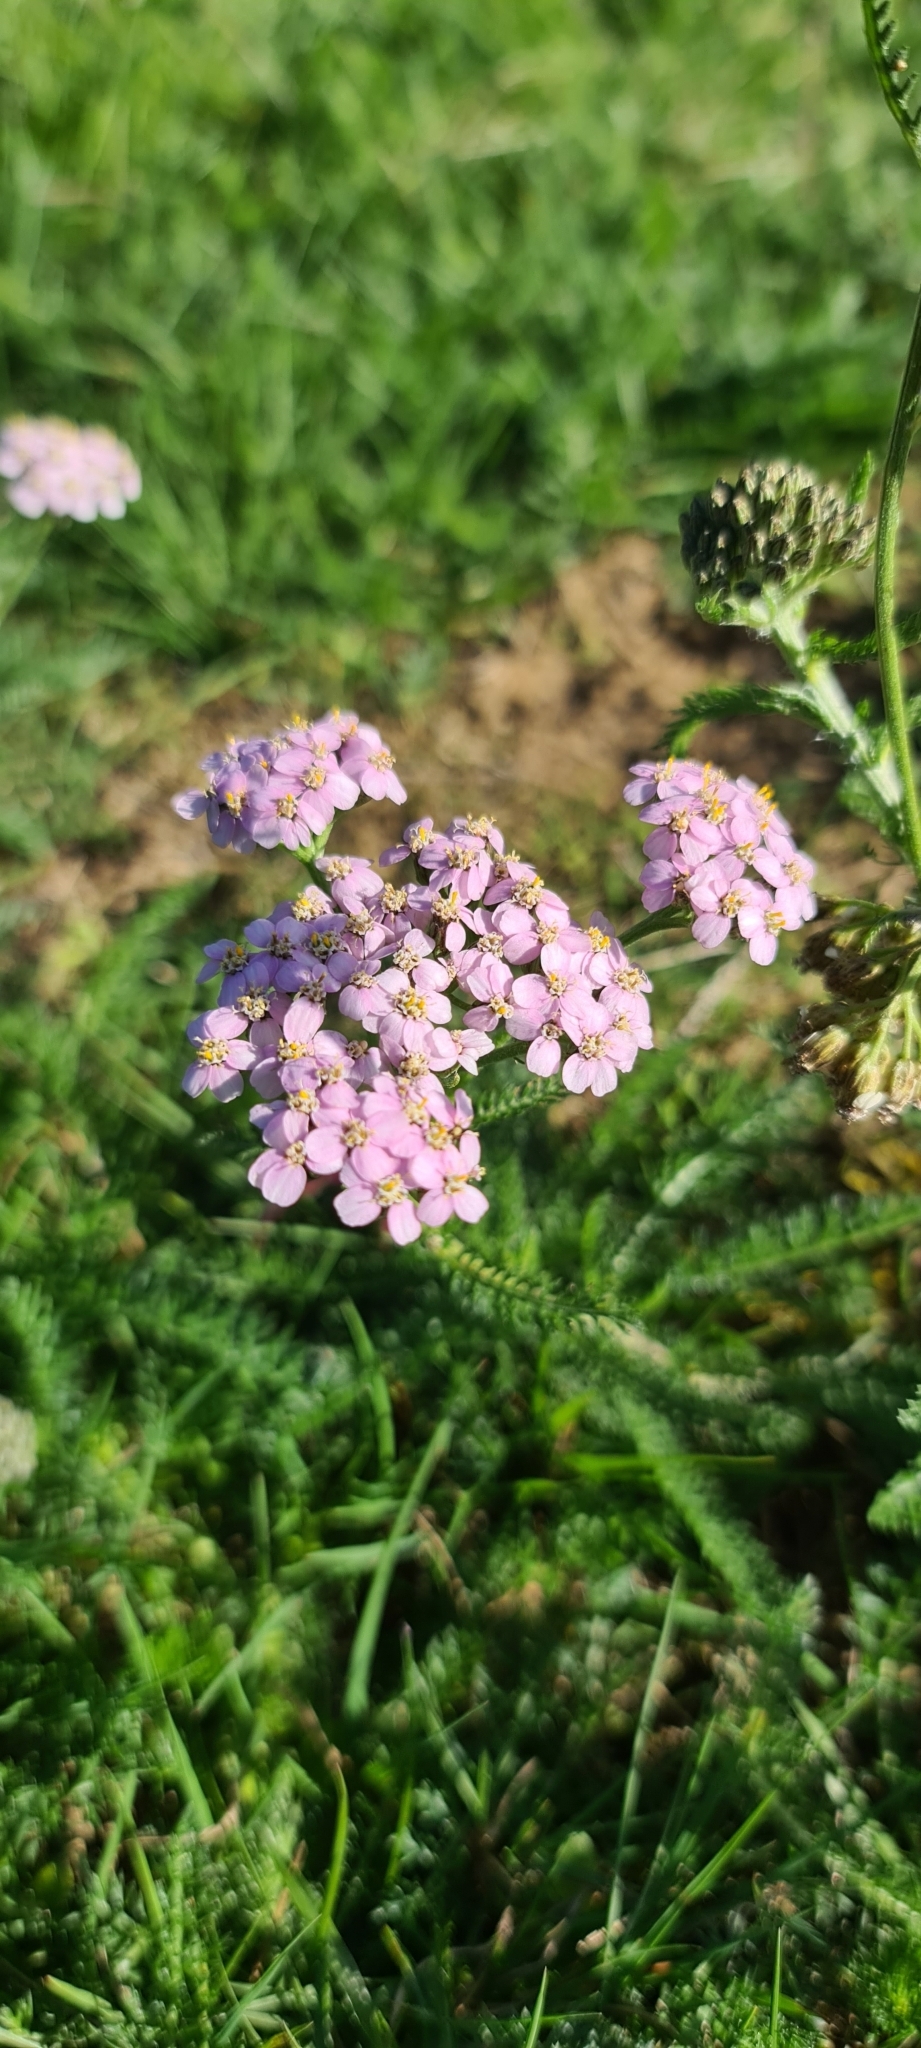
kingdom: Plantae
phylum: Tracheophyta
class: Magnoliopsida
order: Asterales
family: Asteraceae
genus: Achillea
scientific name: Achillea millefolium
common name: Yarrow
